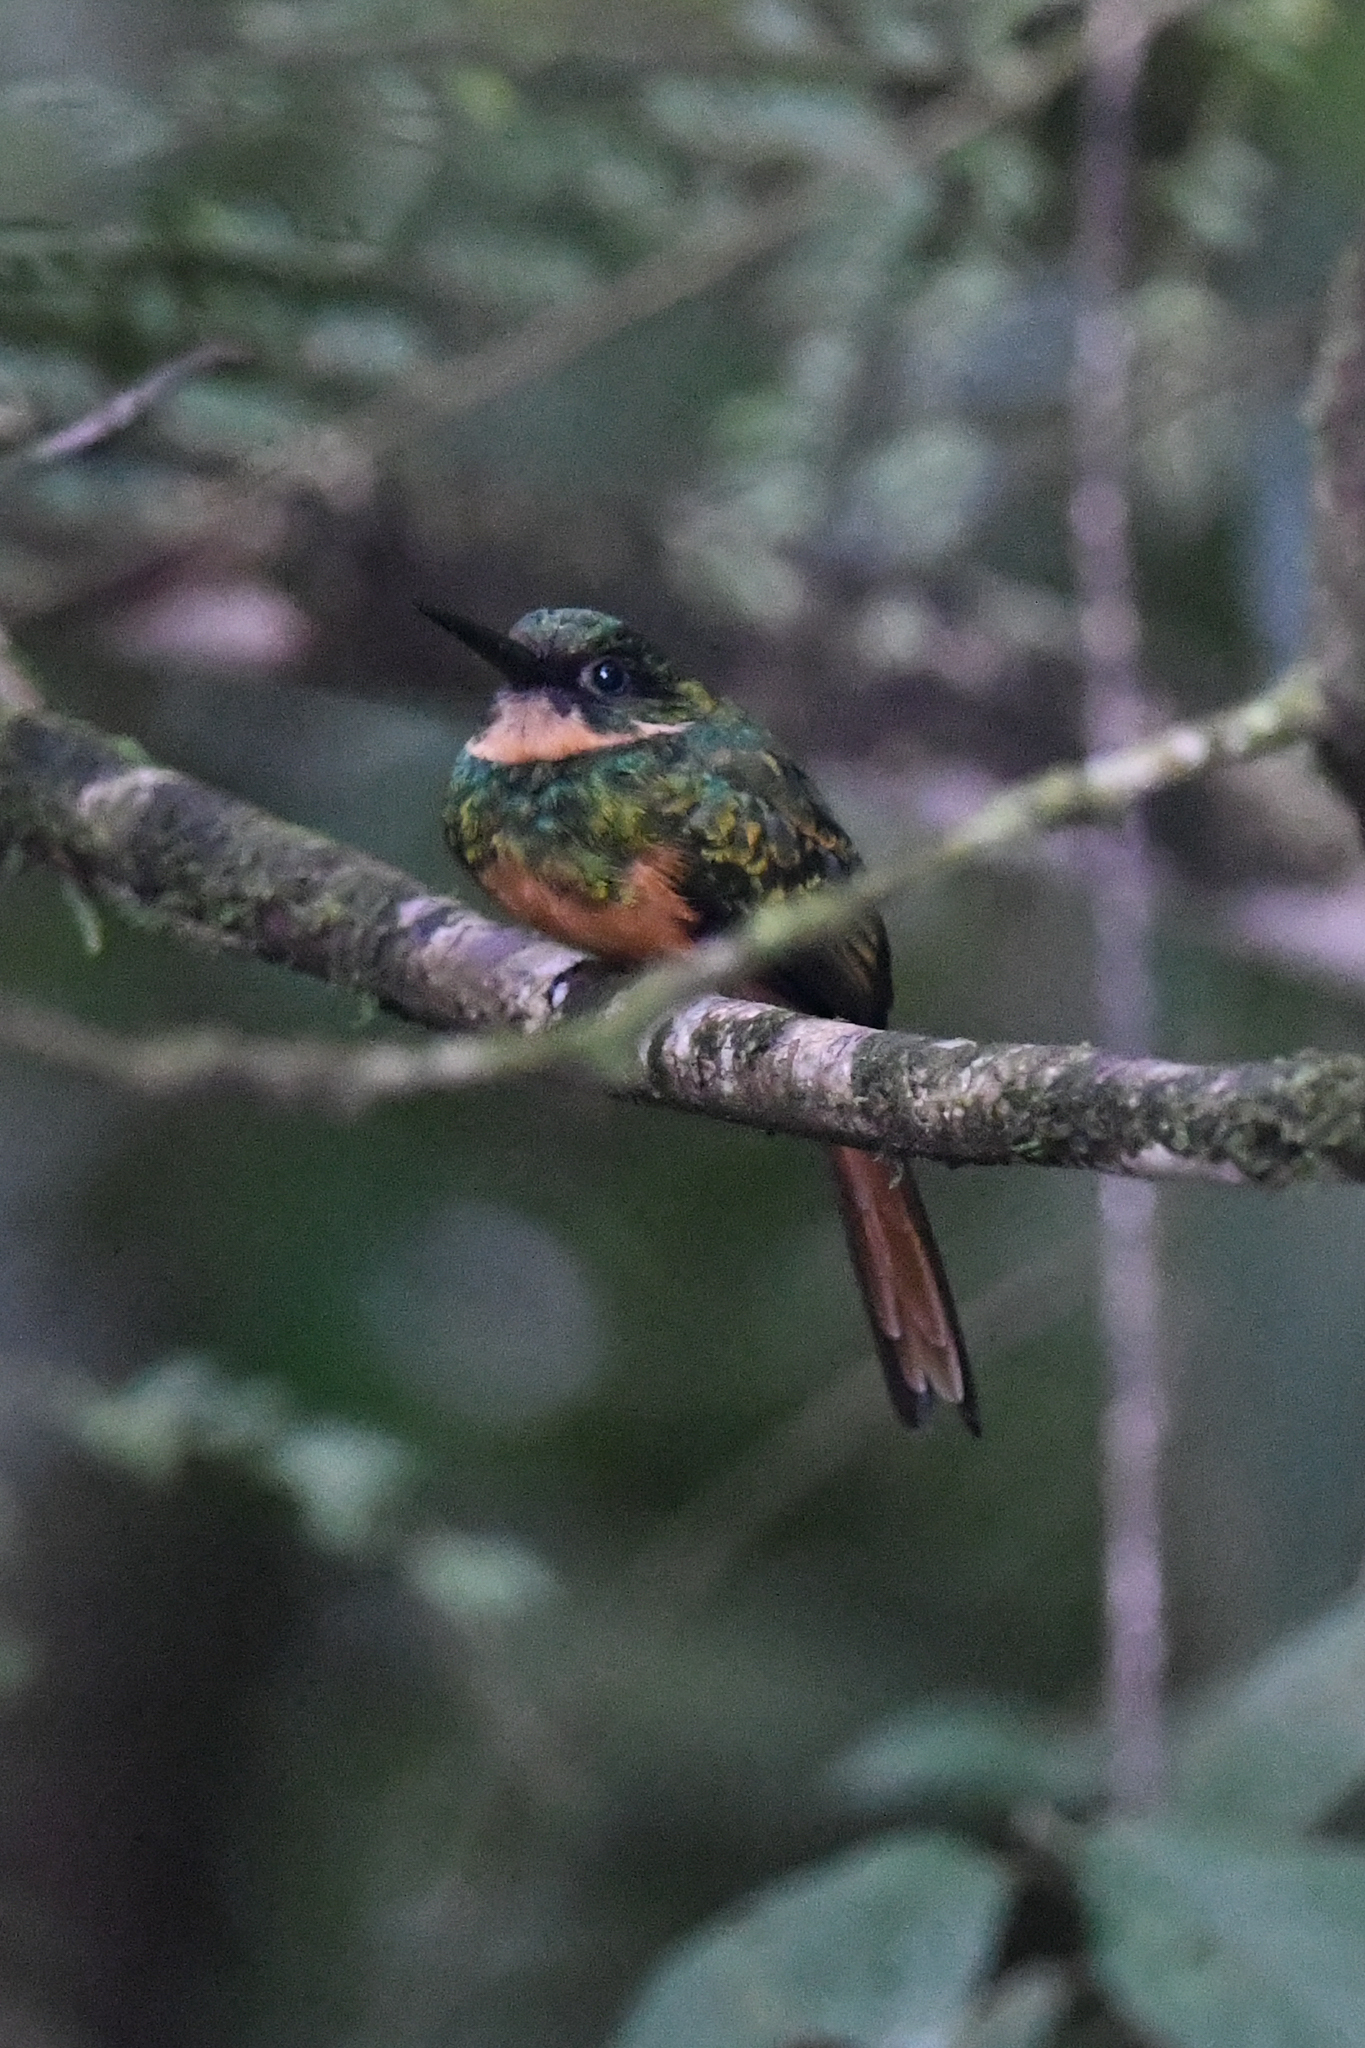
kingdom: Animalia
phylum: Chordata
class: Aves
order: Piciformes
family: Galbulidae
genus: Galbula
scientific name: Galbula ruficauda
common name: Rufous-tailed jacamar
